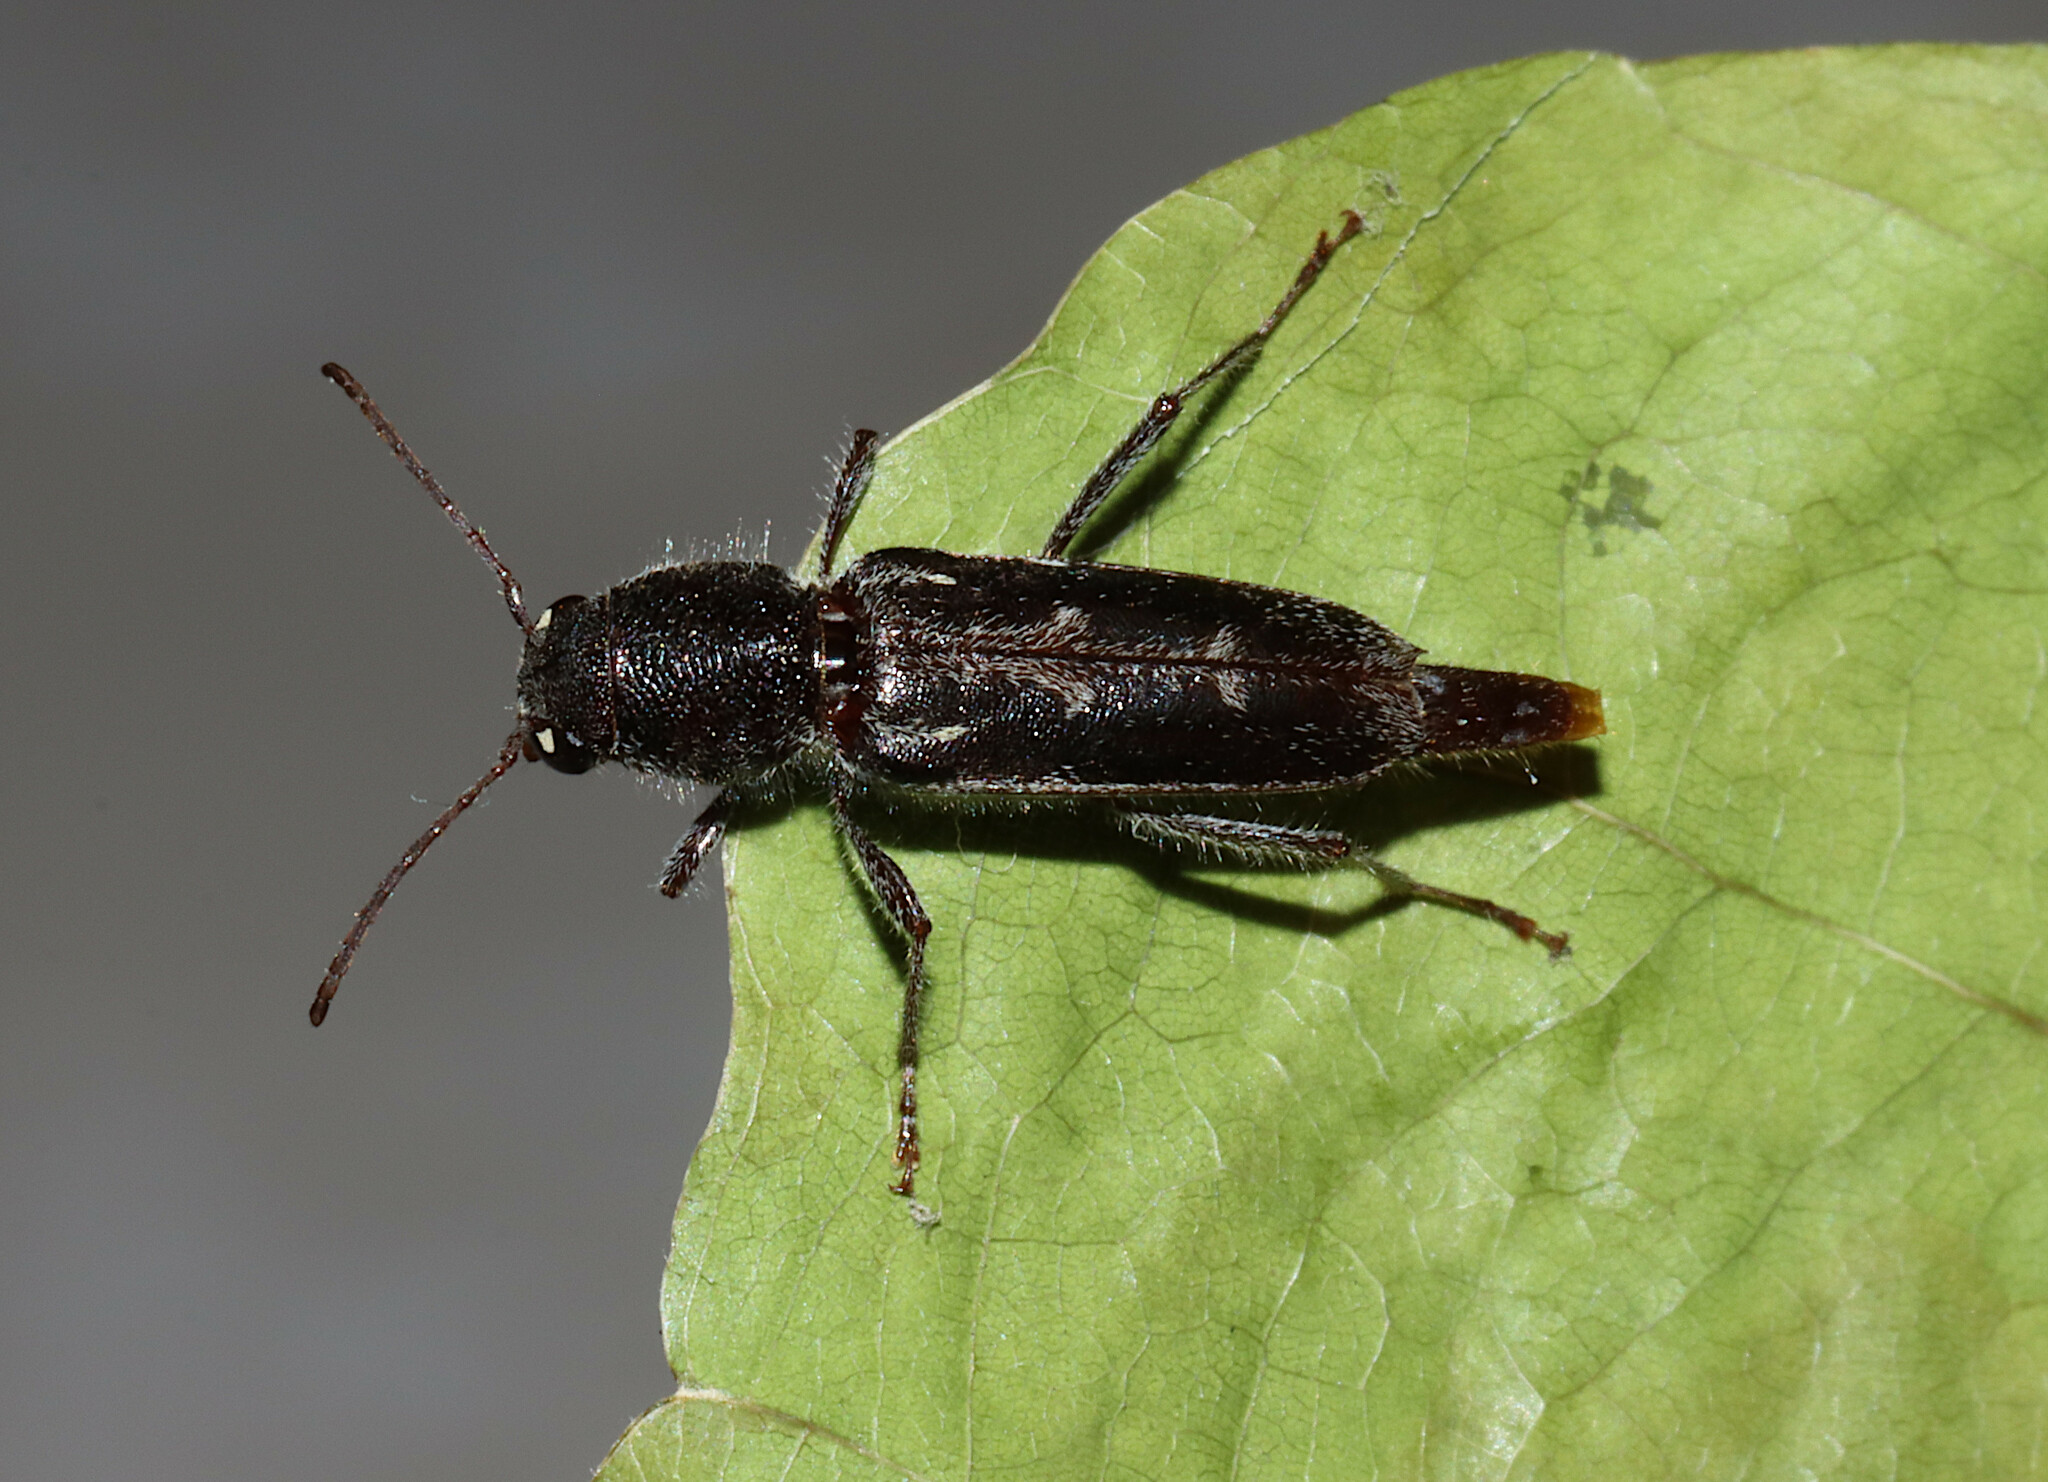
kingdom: Animalia
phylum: Arthropoda
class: Insecta
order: Coleoptera
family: Cerambycidae
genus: Xylotrechus
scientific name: Xylotrechus sagittatus
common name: Arrowhead borer
